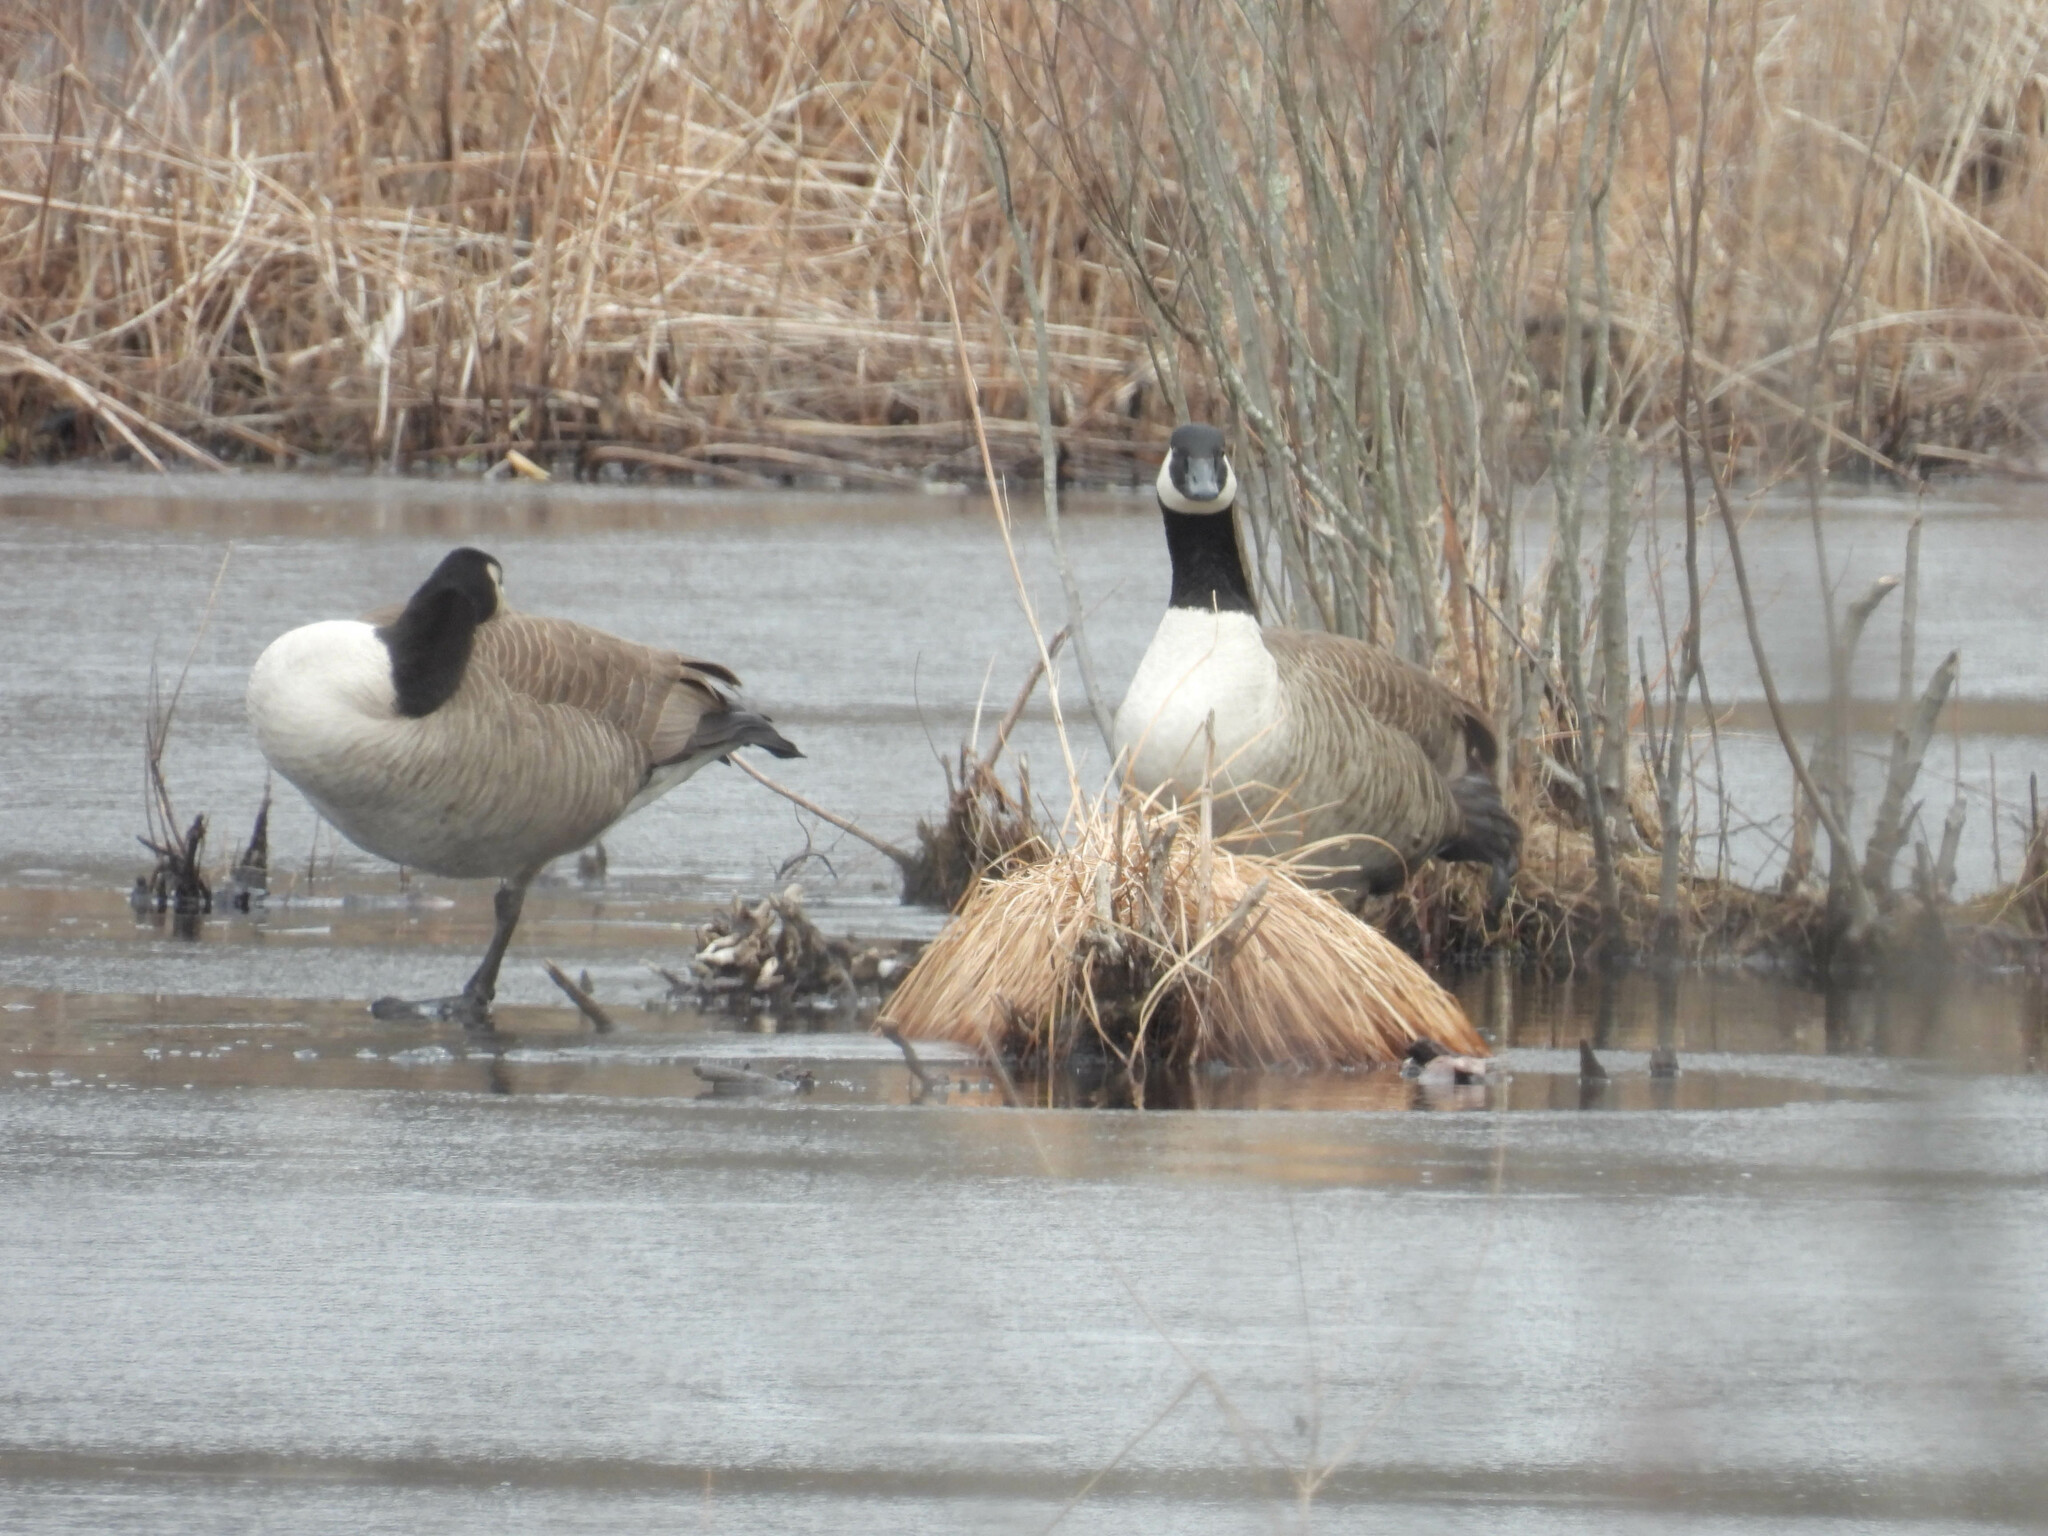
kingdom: Animalia
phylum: Chordata
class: Aves
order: Anseriformes
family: Anatidae
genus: Branta
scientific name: Branta canadensis
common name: Canada goose
